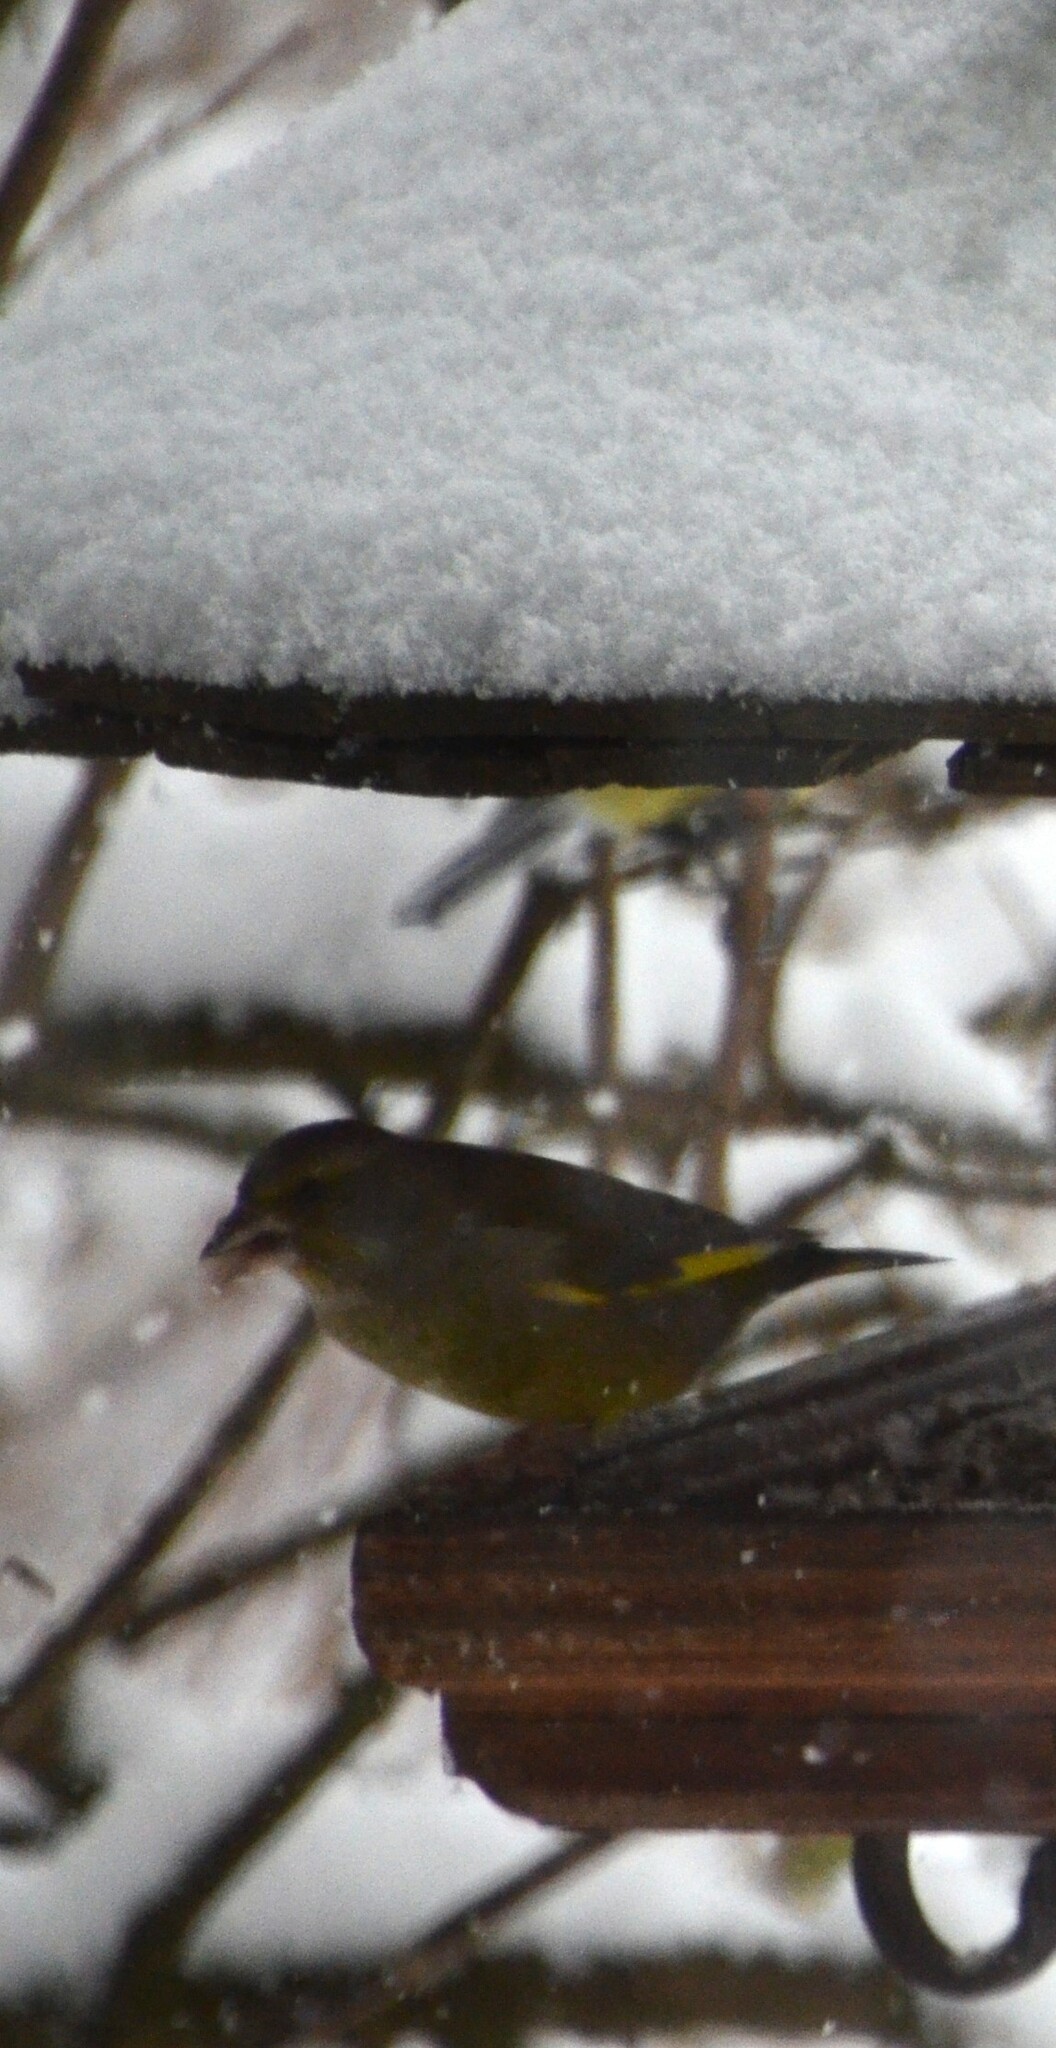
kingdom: Plantae
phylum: Tracheophyta
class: Liliopsida
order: Poales
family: Poaceae
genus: Chloris
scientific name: Chloris chloris
